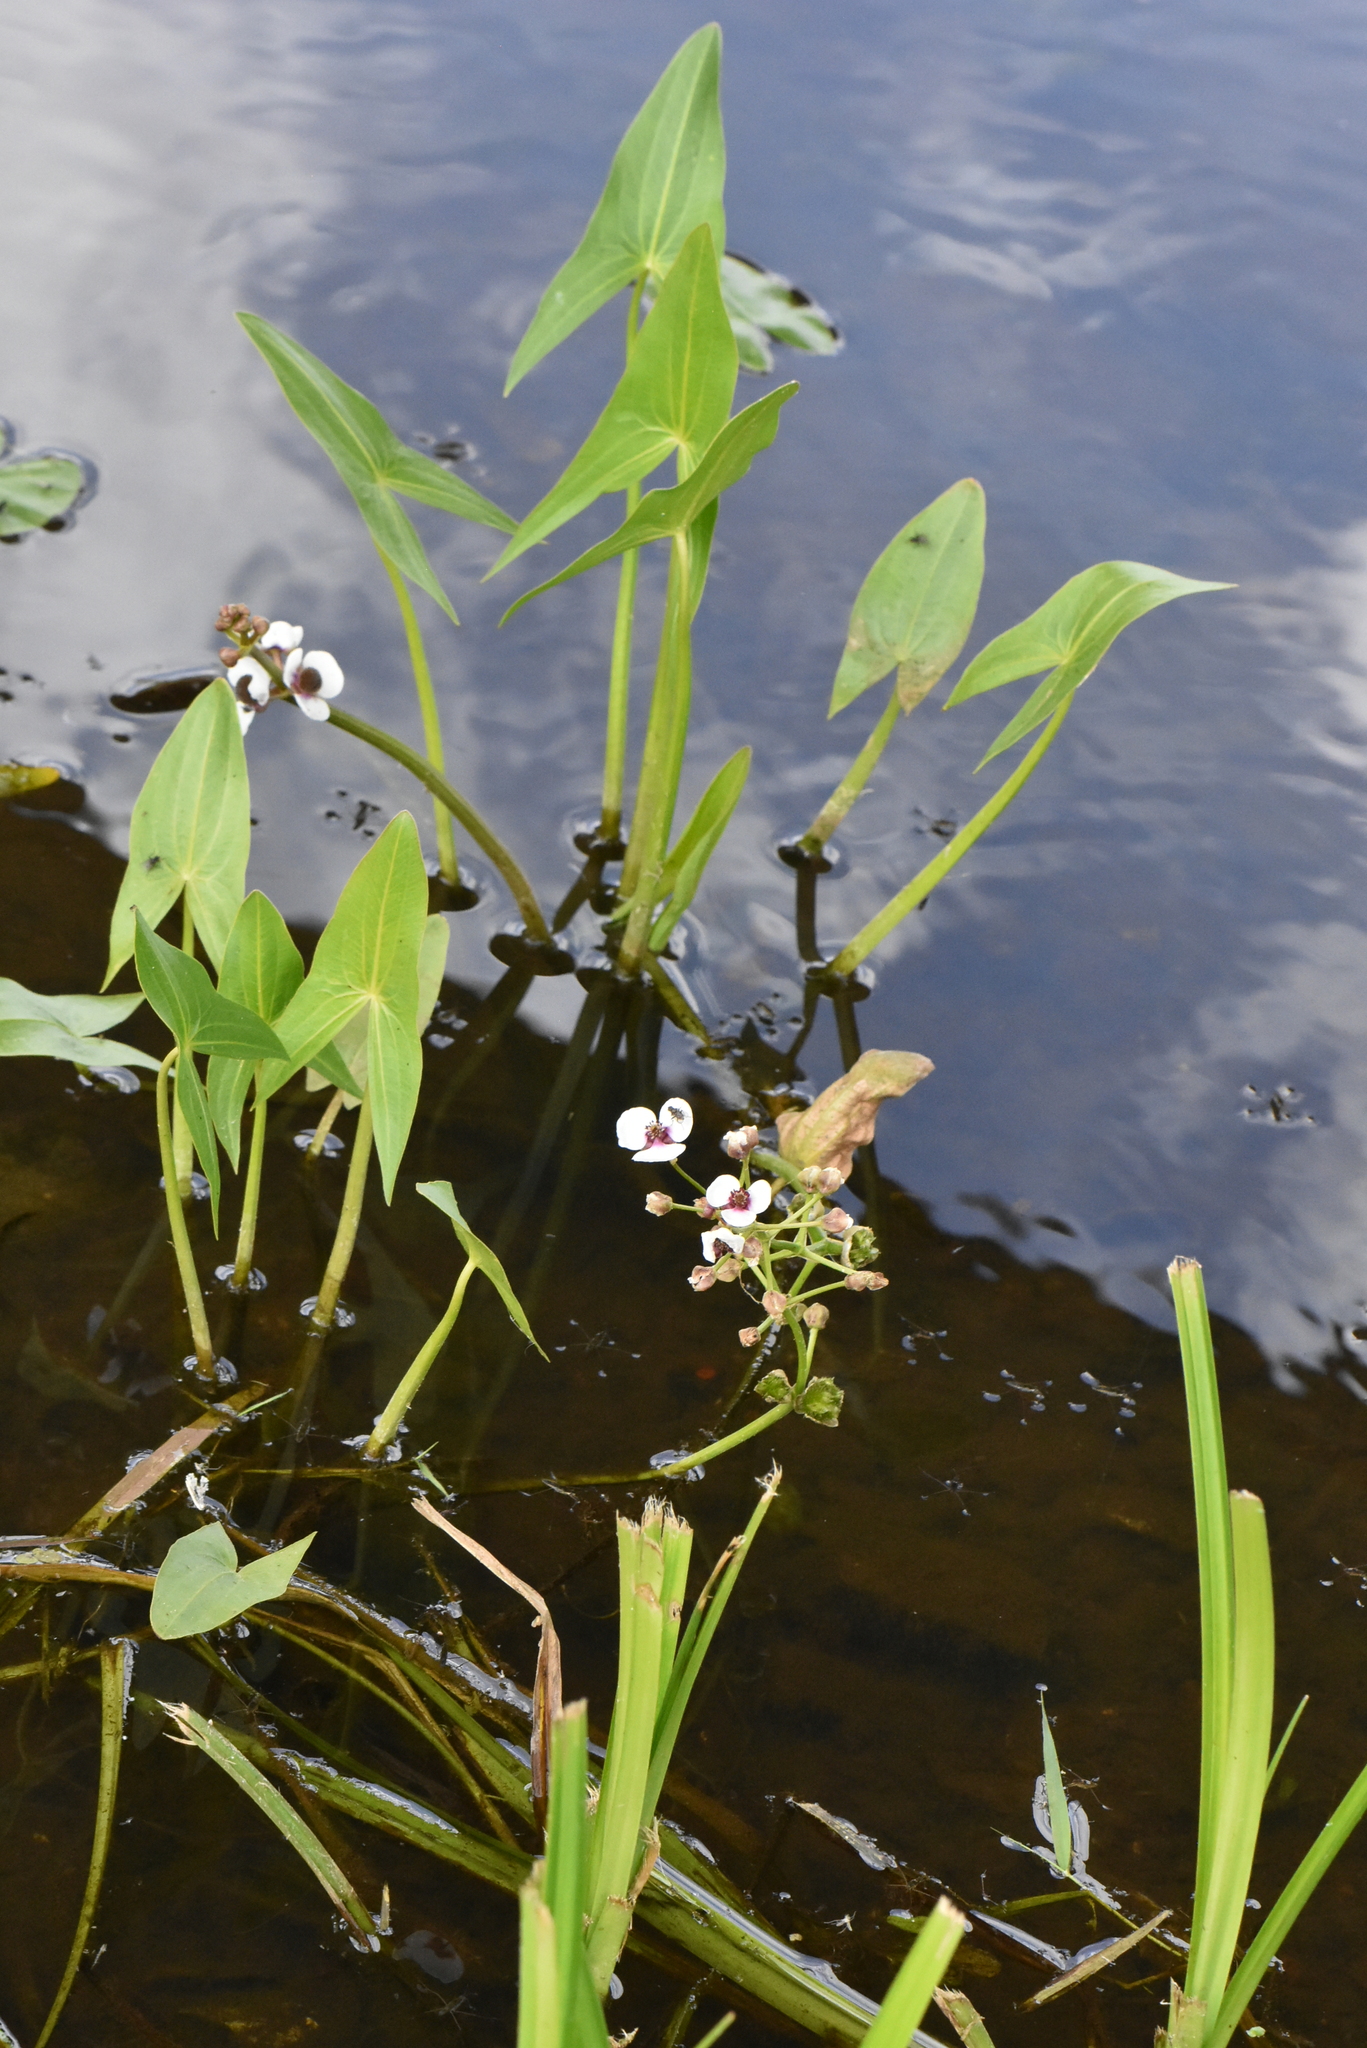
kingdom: Plantae
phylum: Tracheophyta
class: Liliopsida
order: Alismatales
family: Alismataceae
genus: Sagittaria
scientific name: Sagittaria sagittifolia
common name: Arrowhead
